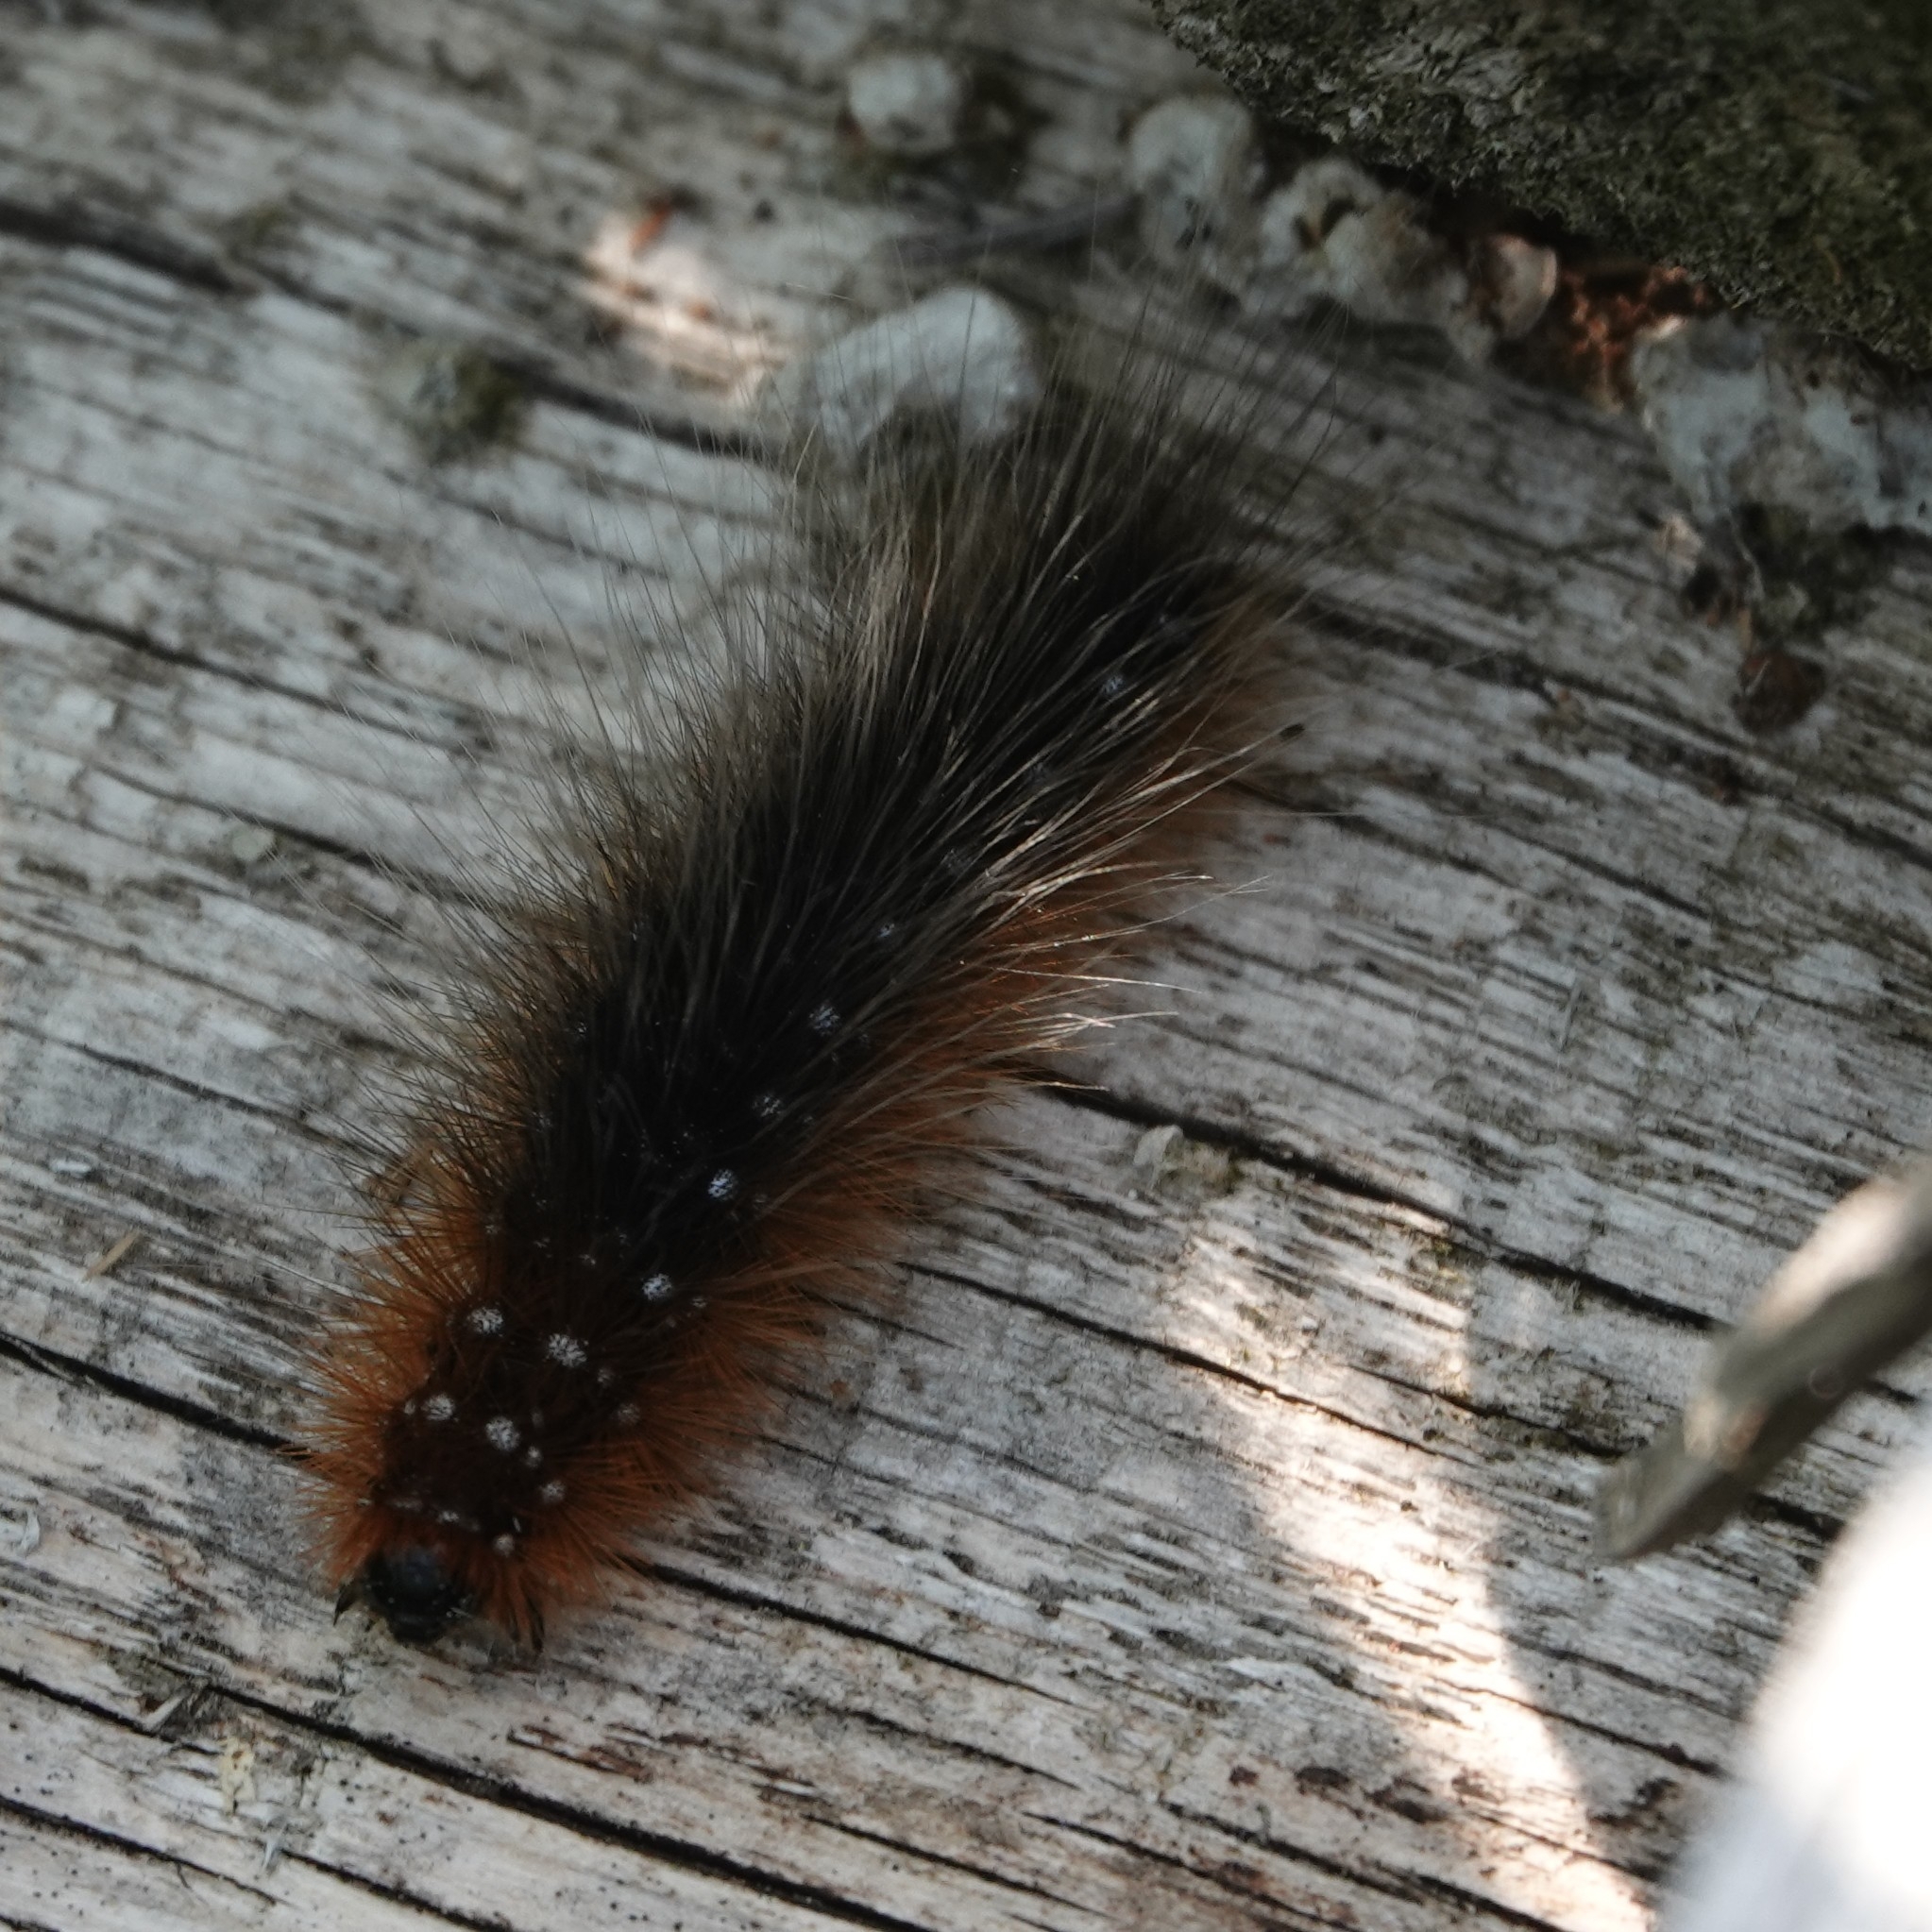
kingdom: Animalia
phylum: Arthropoda
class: Insecta
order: Lepidoptera
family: Erebidae
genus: Arctia
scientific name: Arctia caja
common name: Garden tiger
